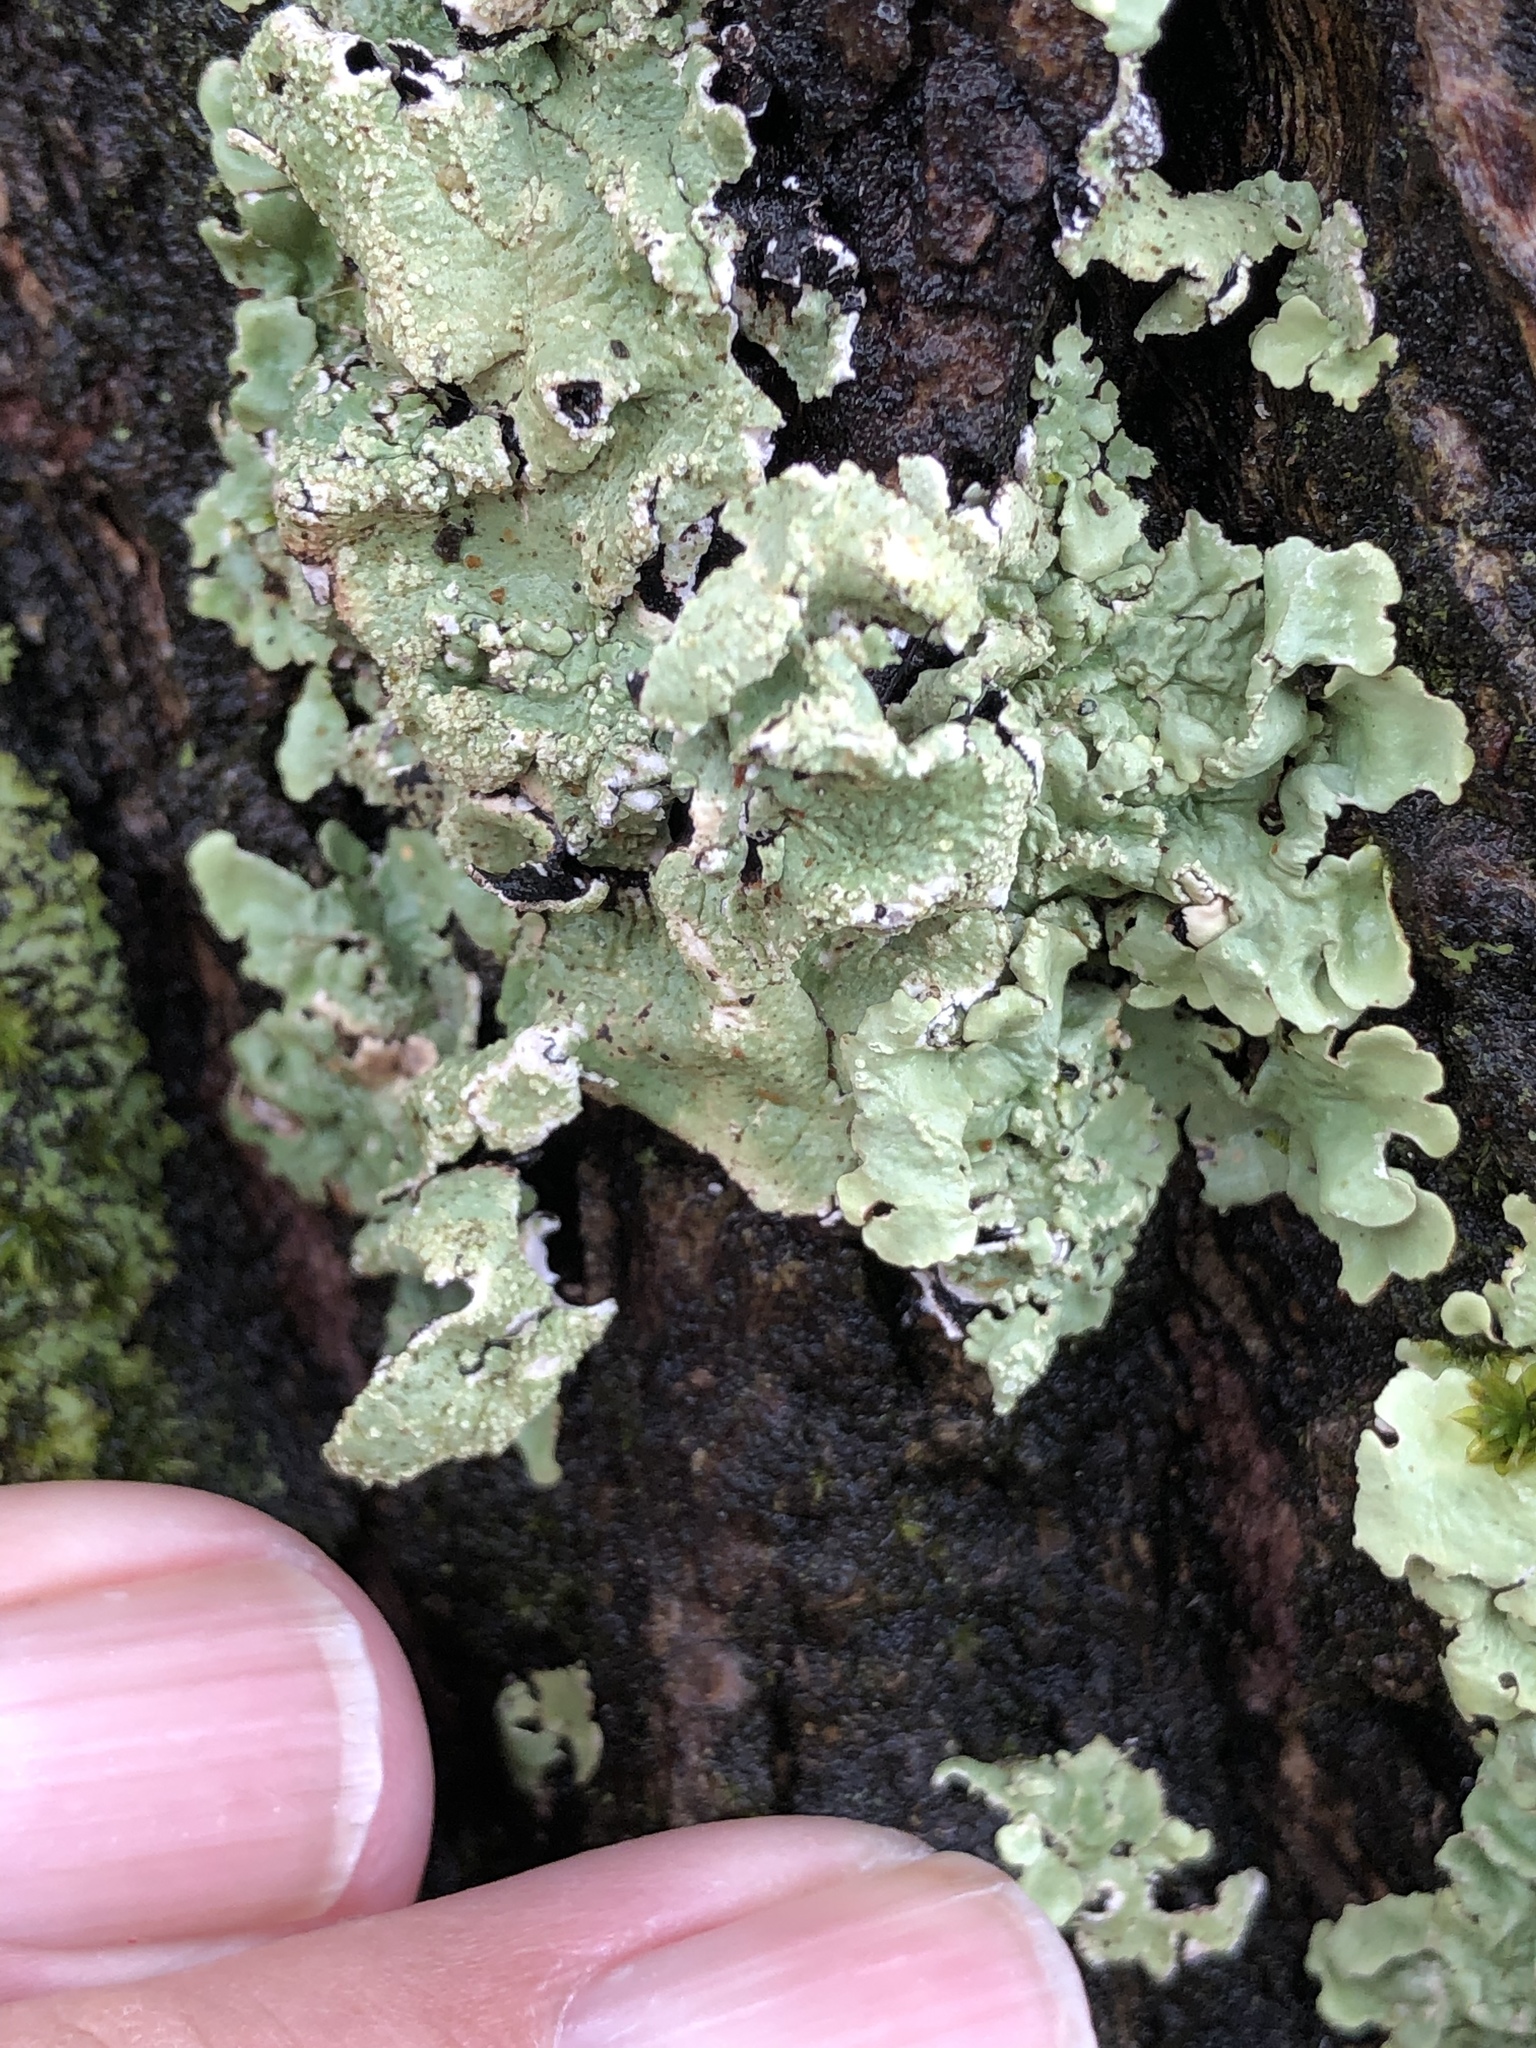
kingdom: Fungi
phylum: Ascomycota
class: Lecanoromycetes
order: Lecanorales
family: Parmeliaceae
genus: Flavoparmelia
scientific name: Flavoparmelia caperata
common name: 40-mile per hour lichen
